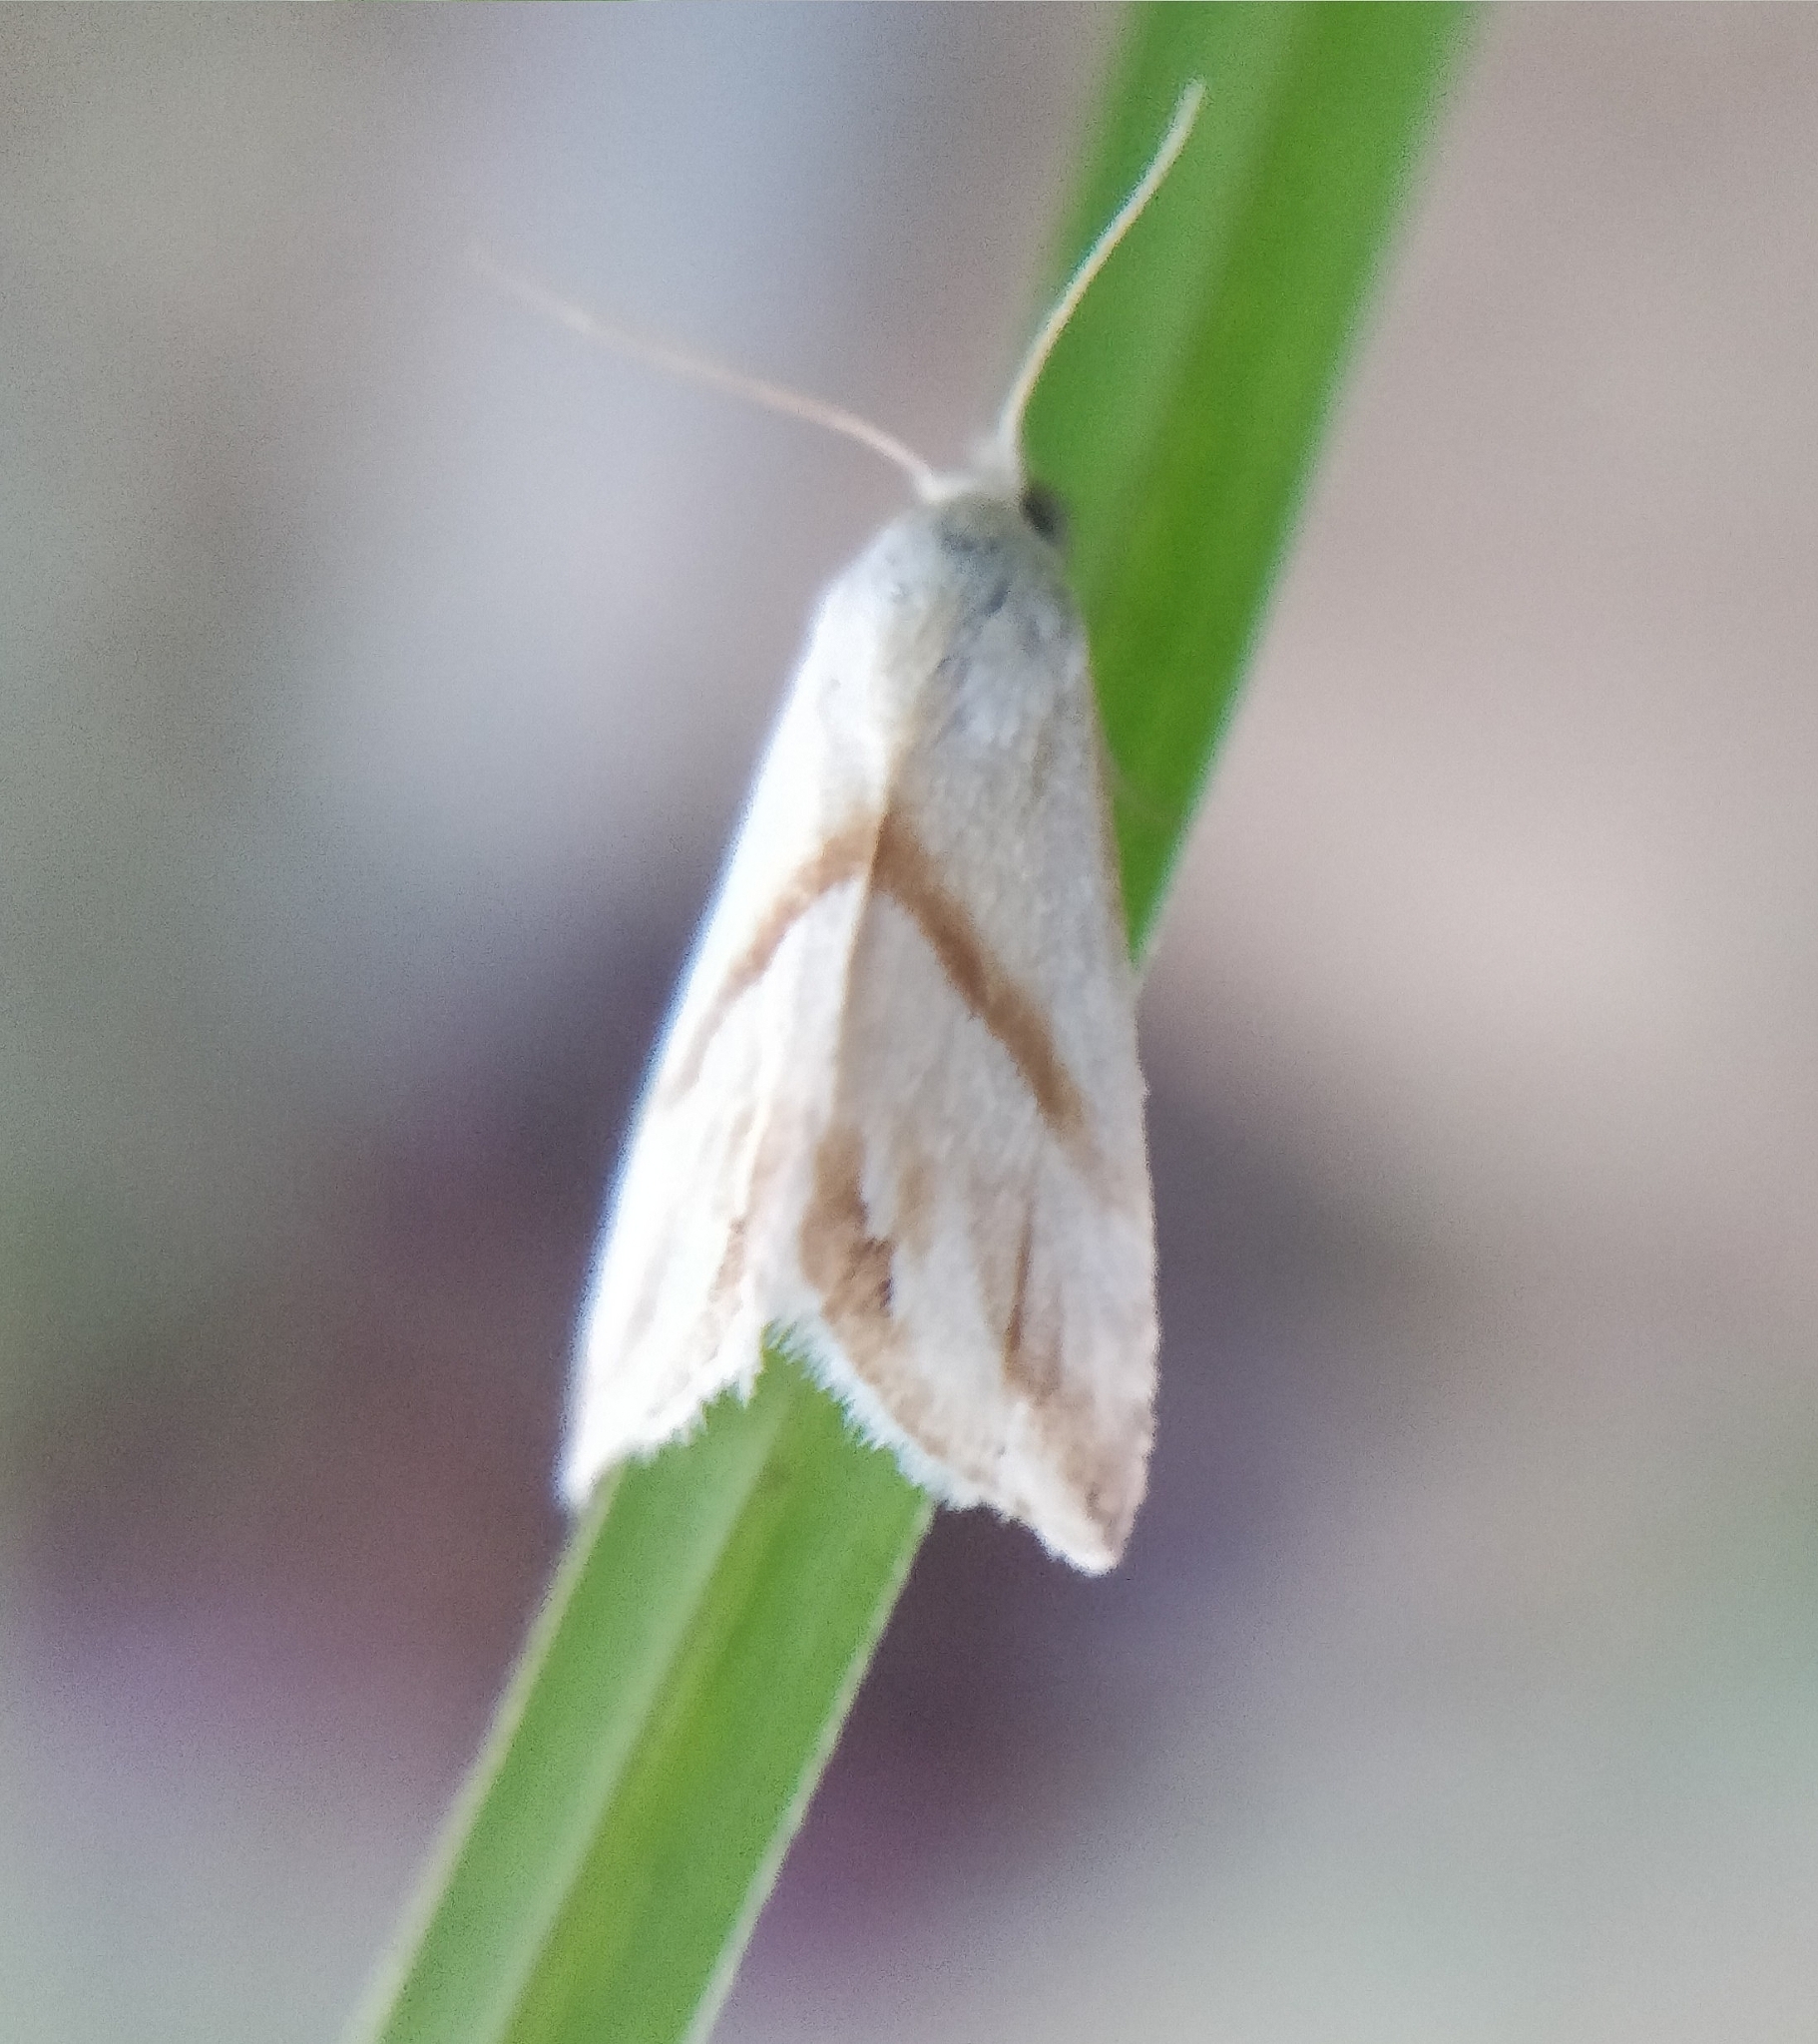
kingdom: Animalia
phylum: Arthropoda
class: Insecta
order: Lepidoptera
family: Noctuidae
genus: Eublemma
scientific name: Eublemma cochylioides
